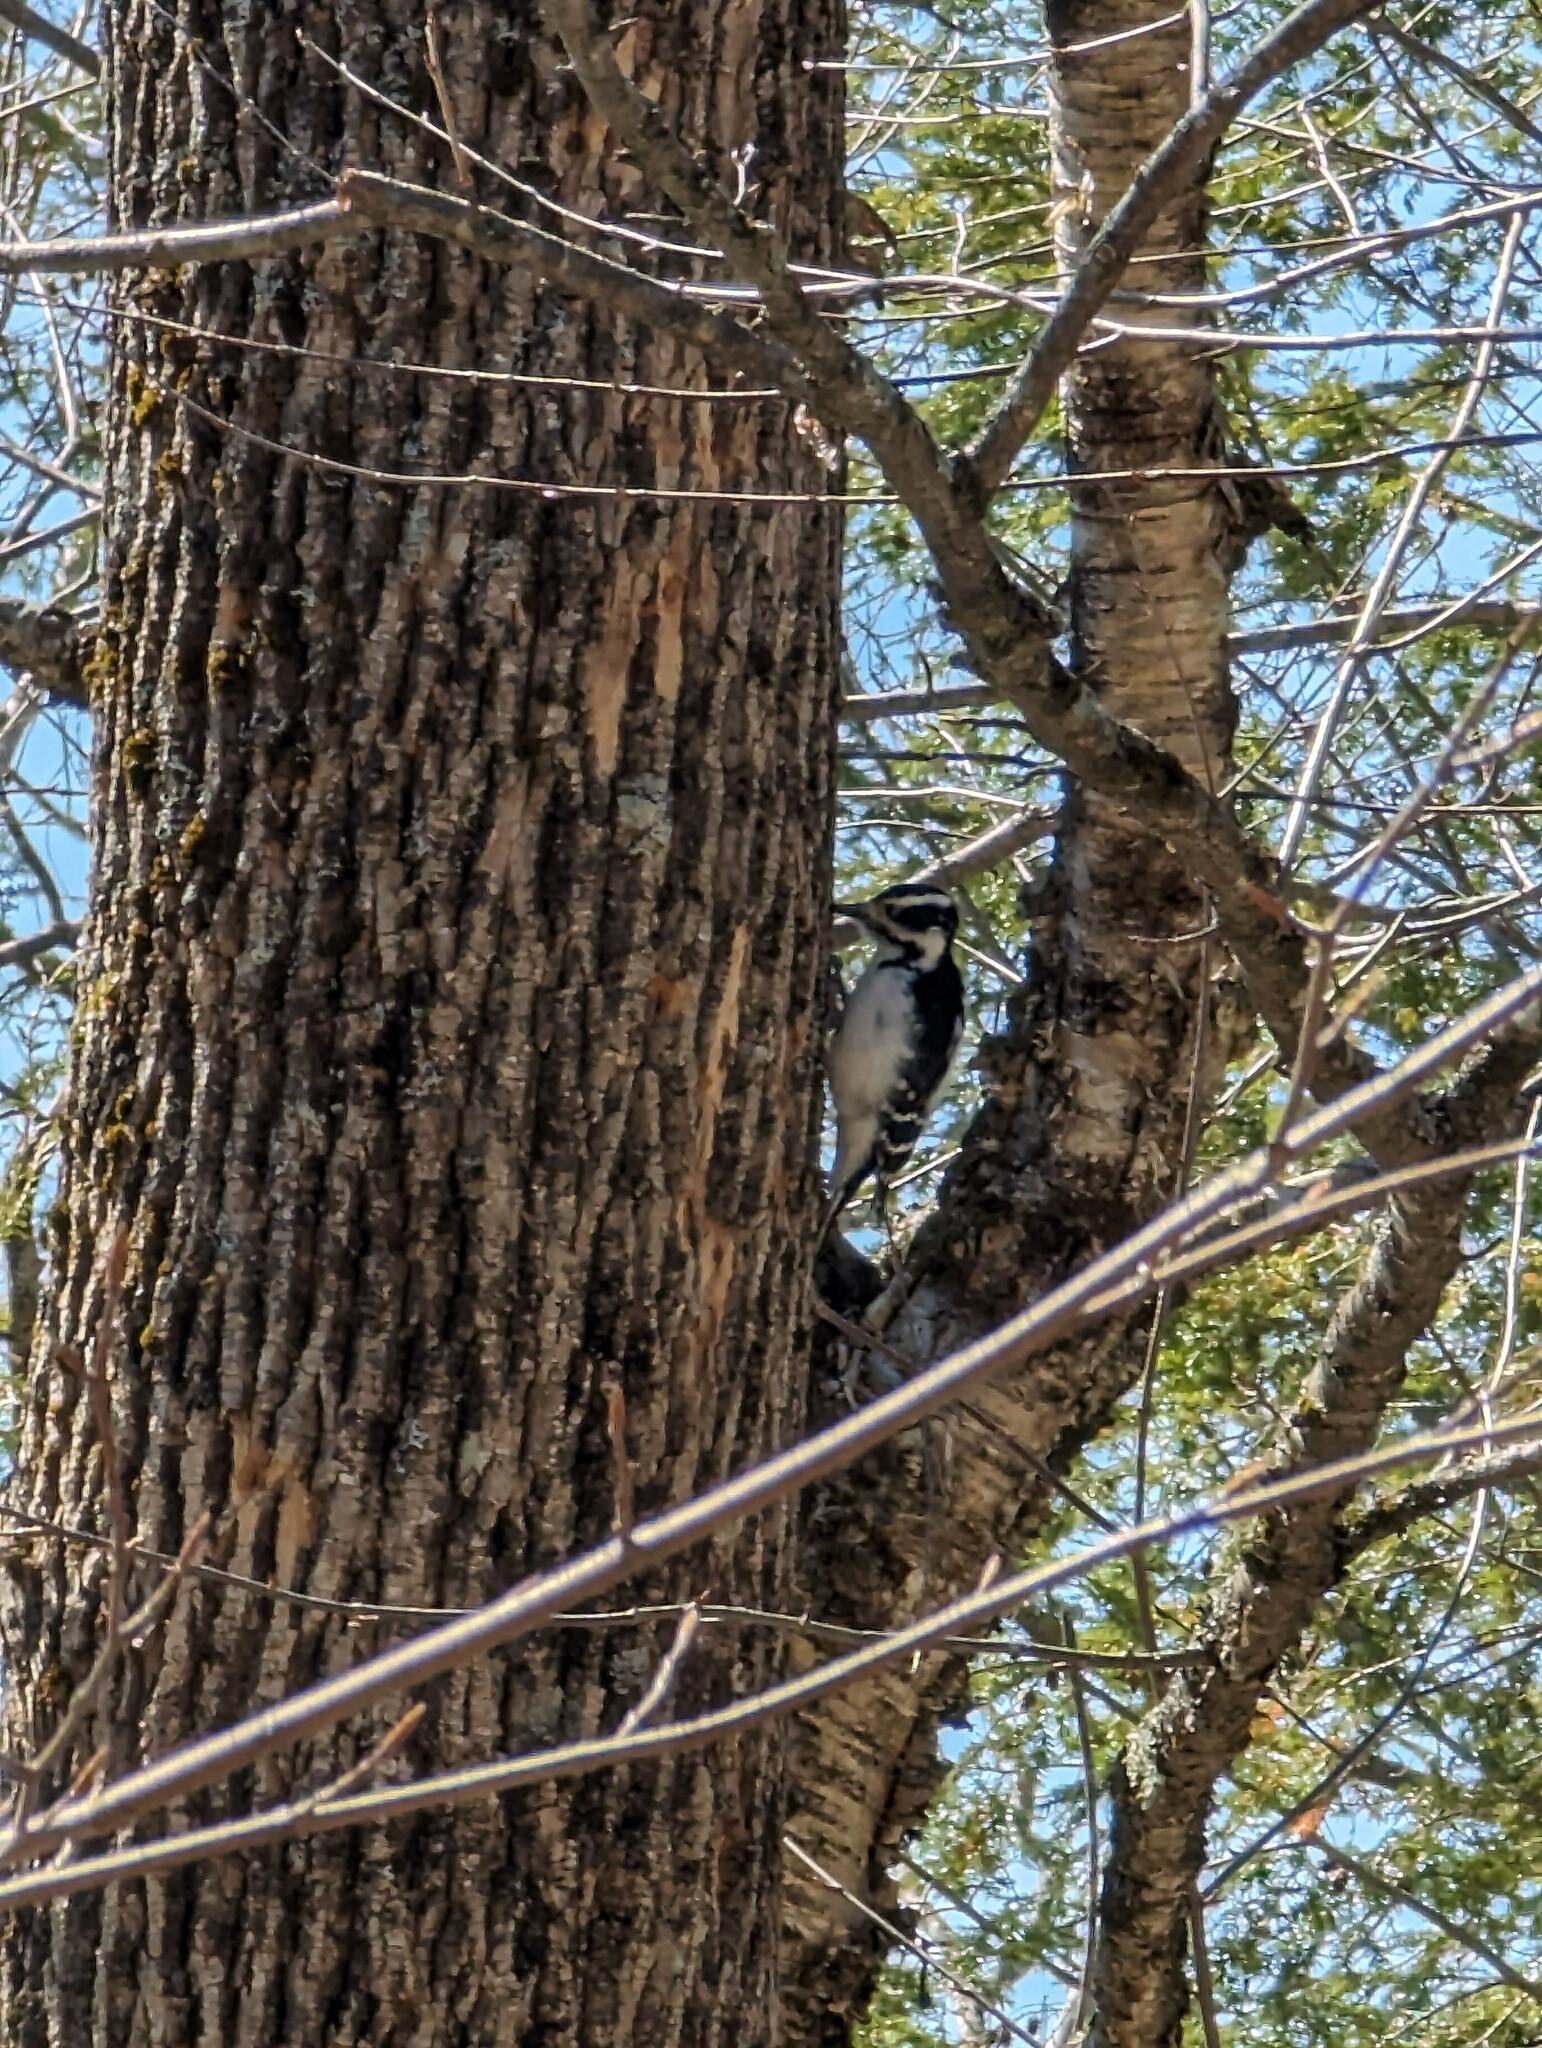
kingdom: Animalia
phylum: Chordata
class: Aves
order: Piciformes
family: Picidae
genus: Dryobates
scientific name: Dryobates pubescens
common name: Downy woodpecker
